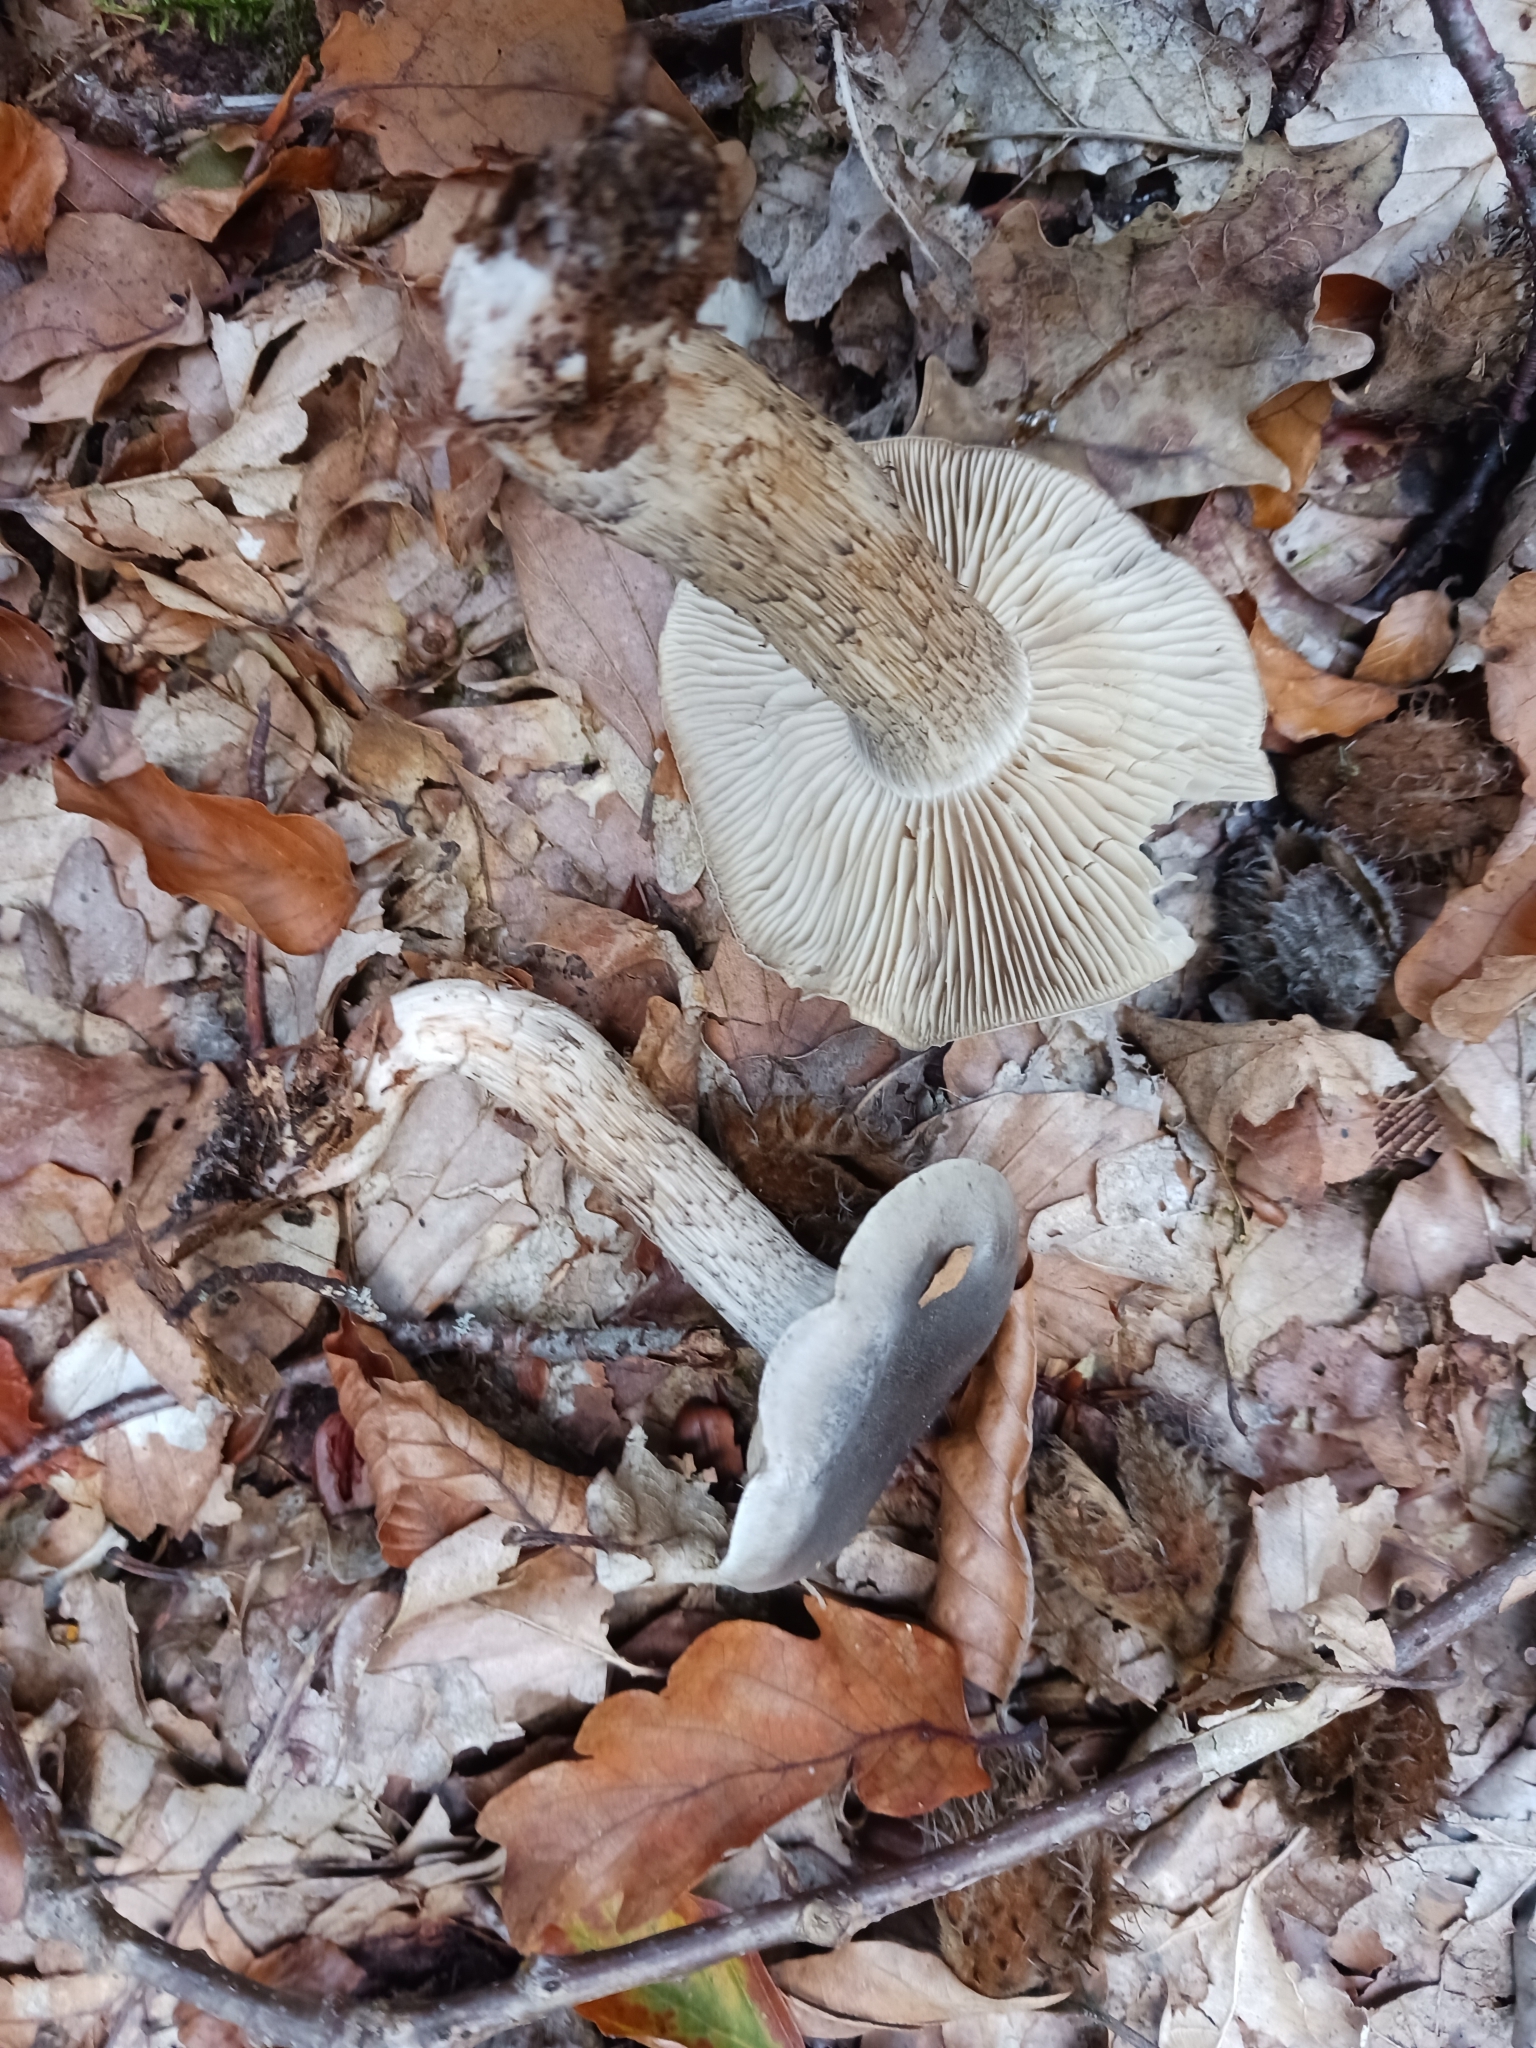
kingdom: Fungi
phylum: Basidiomycota
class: Agaricomycetes
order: Agaricales
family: Tricholomataceae
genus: Tricholoma
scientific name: Tricholoma saponaceum
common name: Soapy trich
